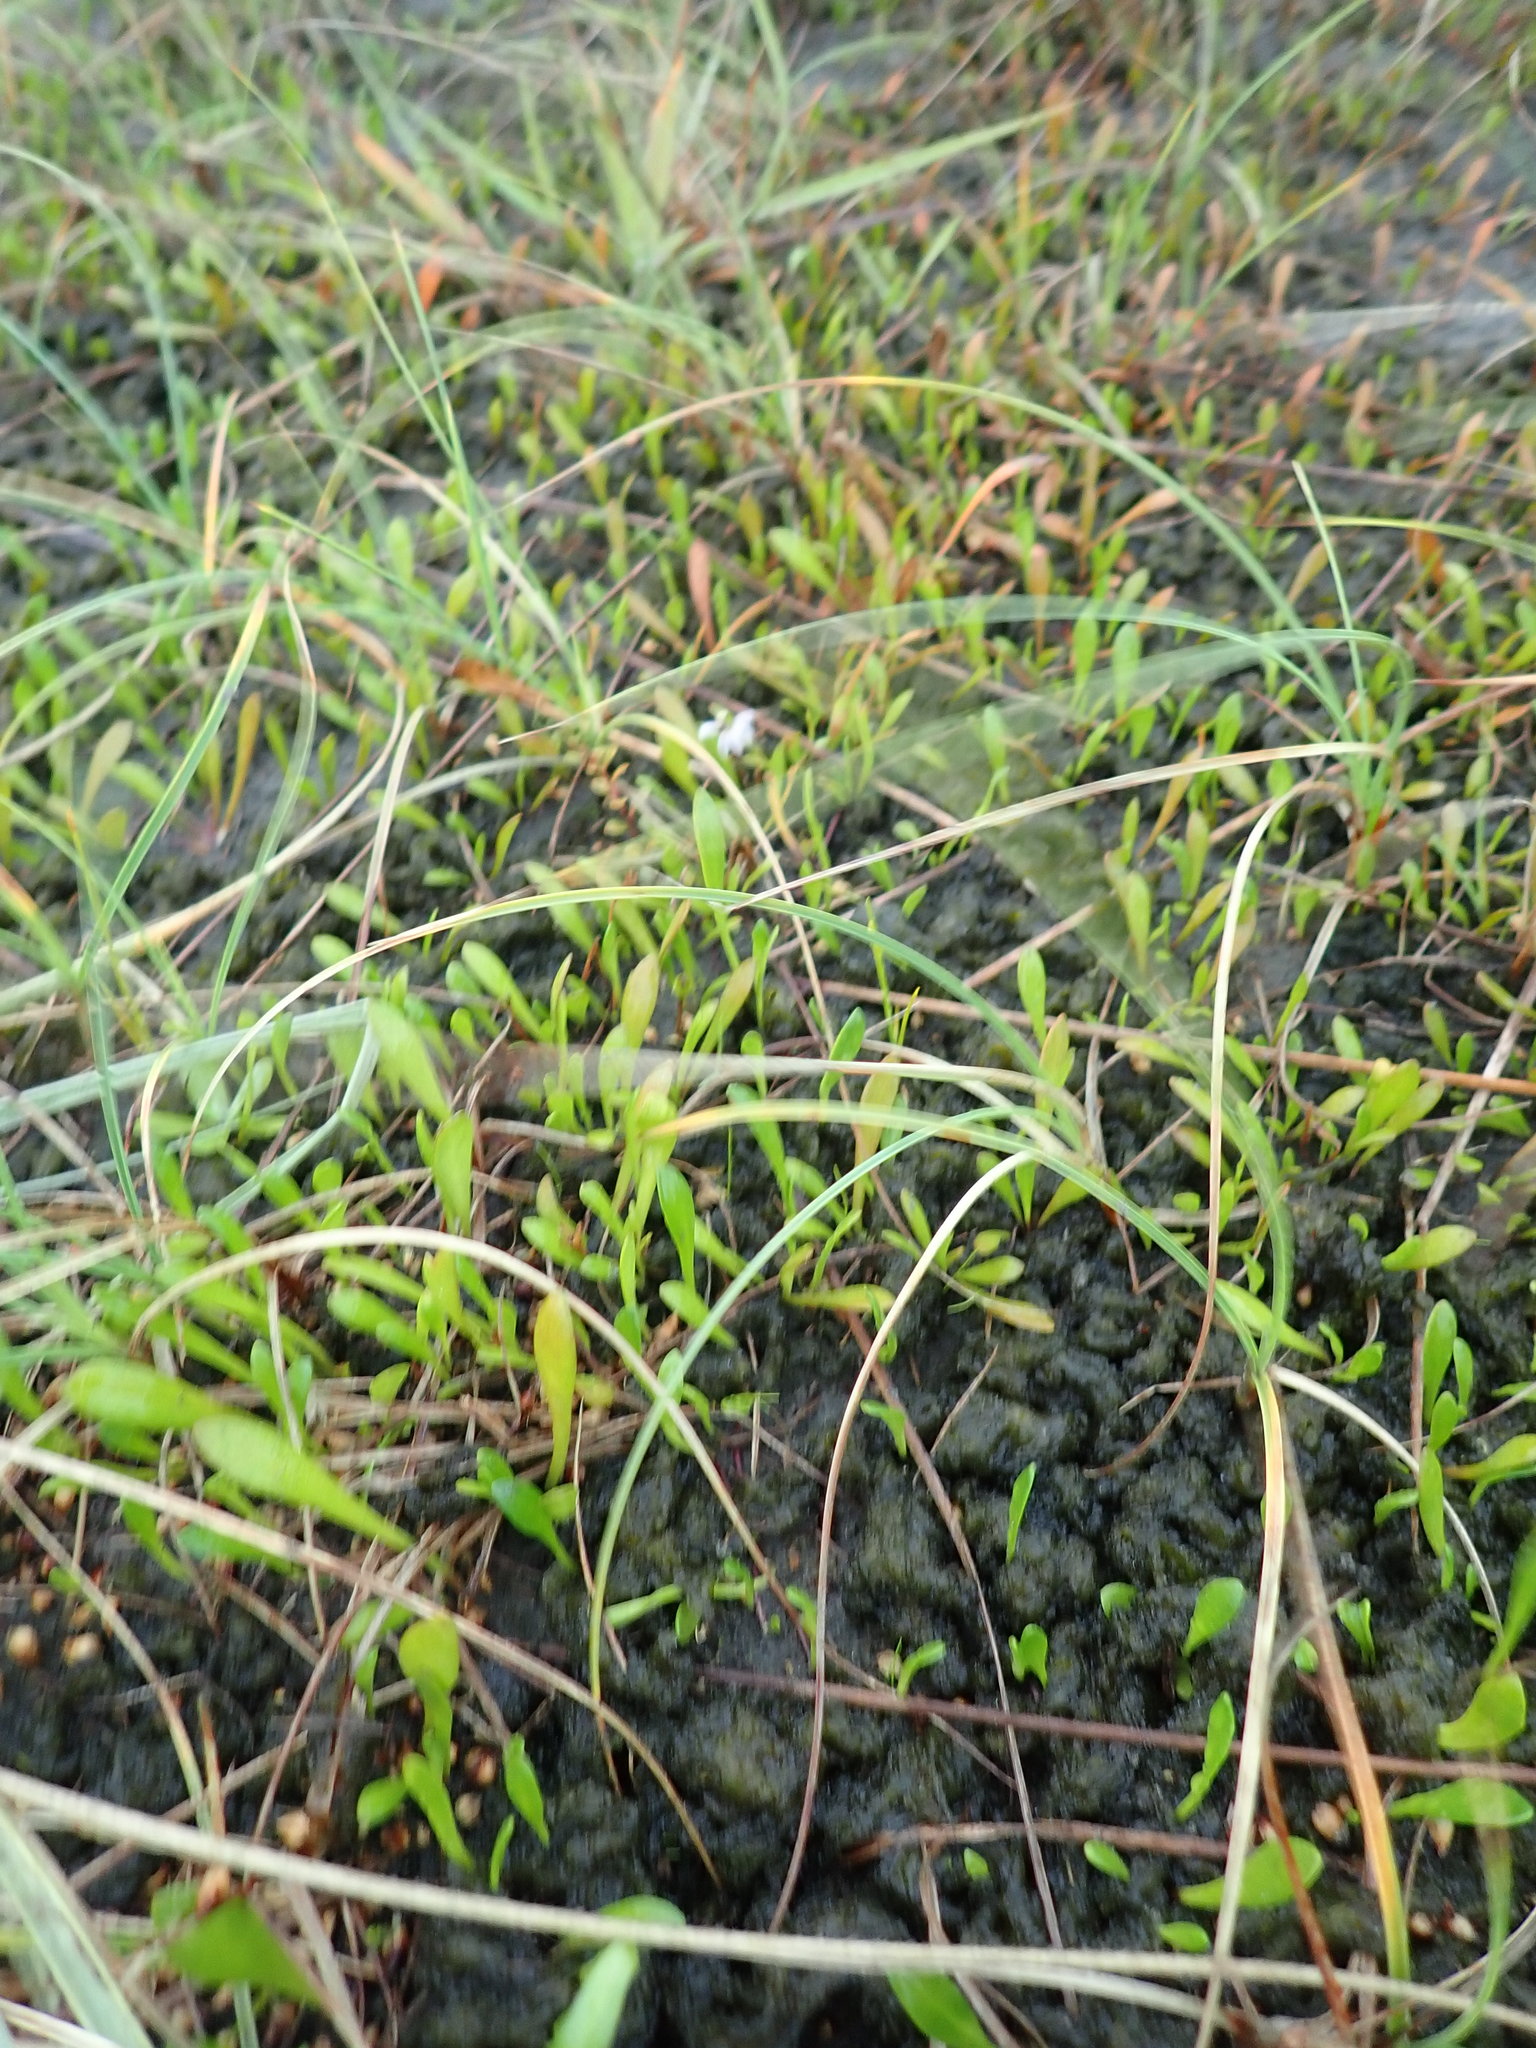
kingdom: Plantae
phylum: Tracheophyta
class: Magnoliopsida
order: Asterales
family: Goodeniaceae
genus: Goodenia
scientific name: Goodenia radicans
